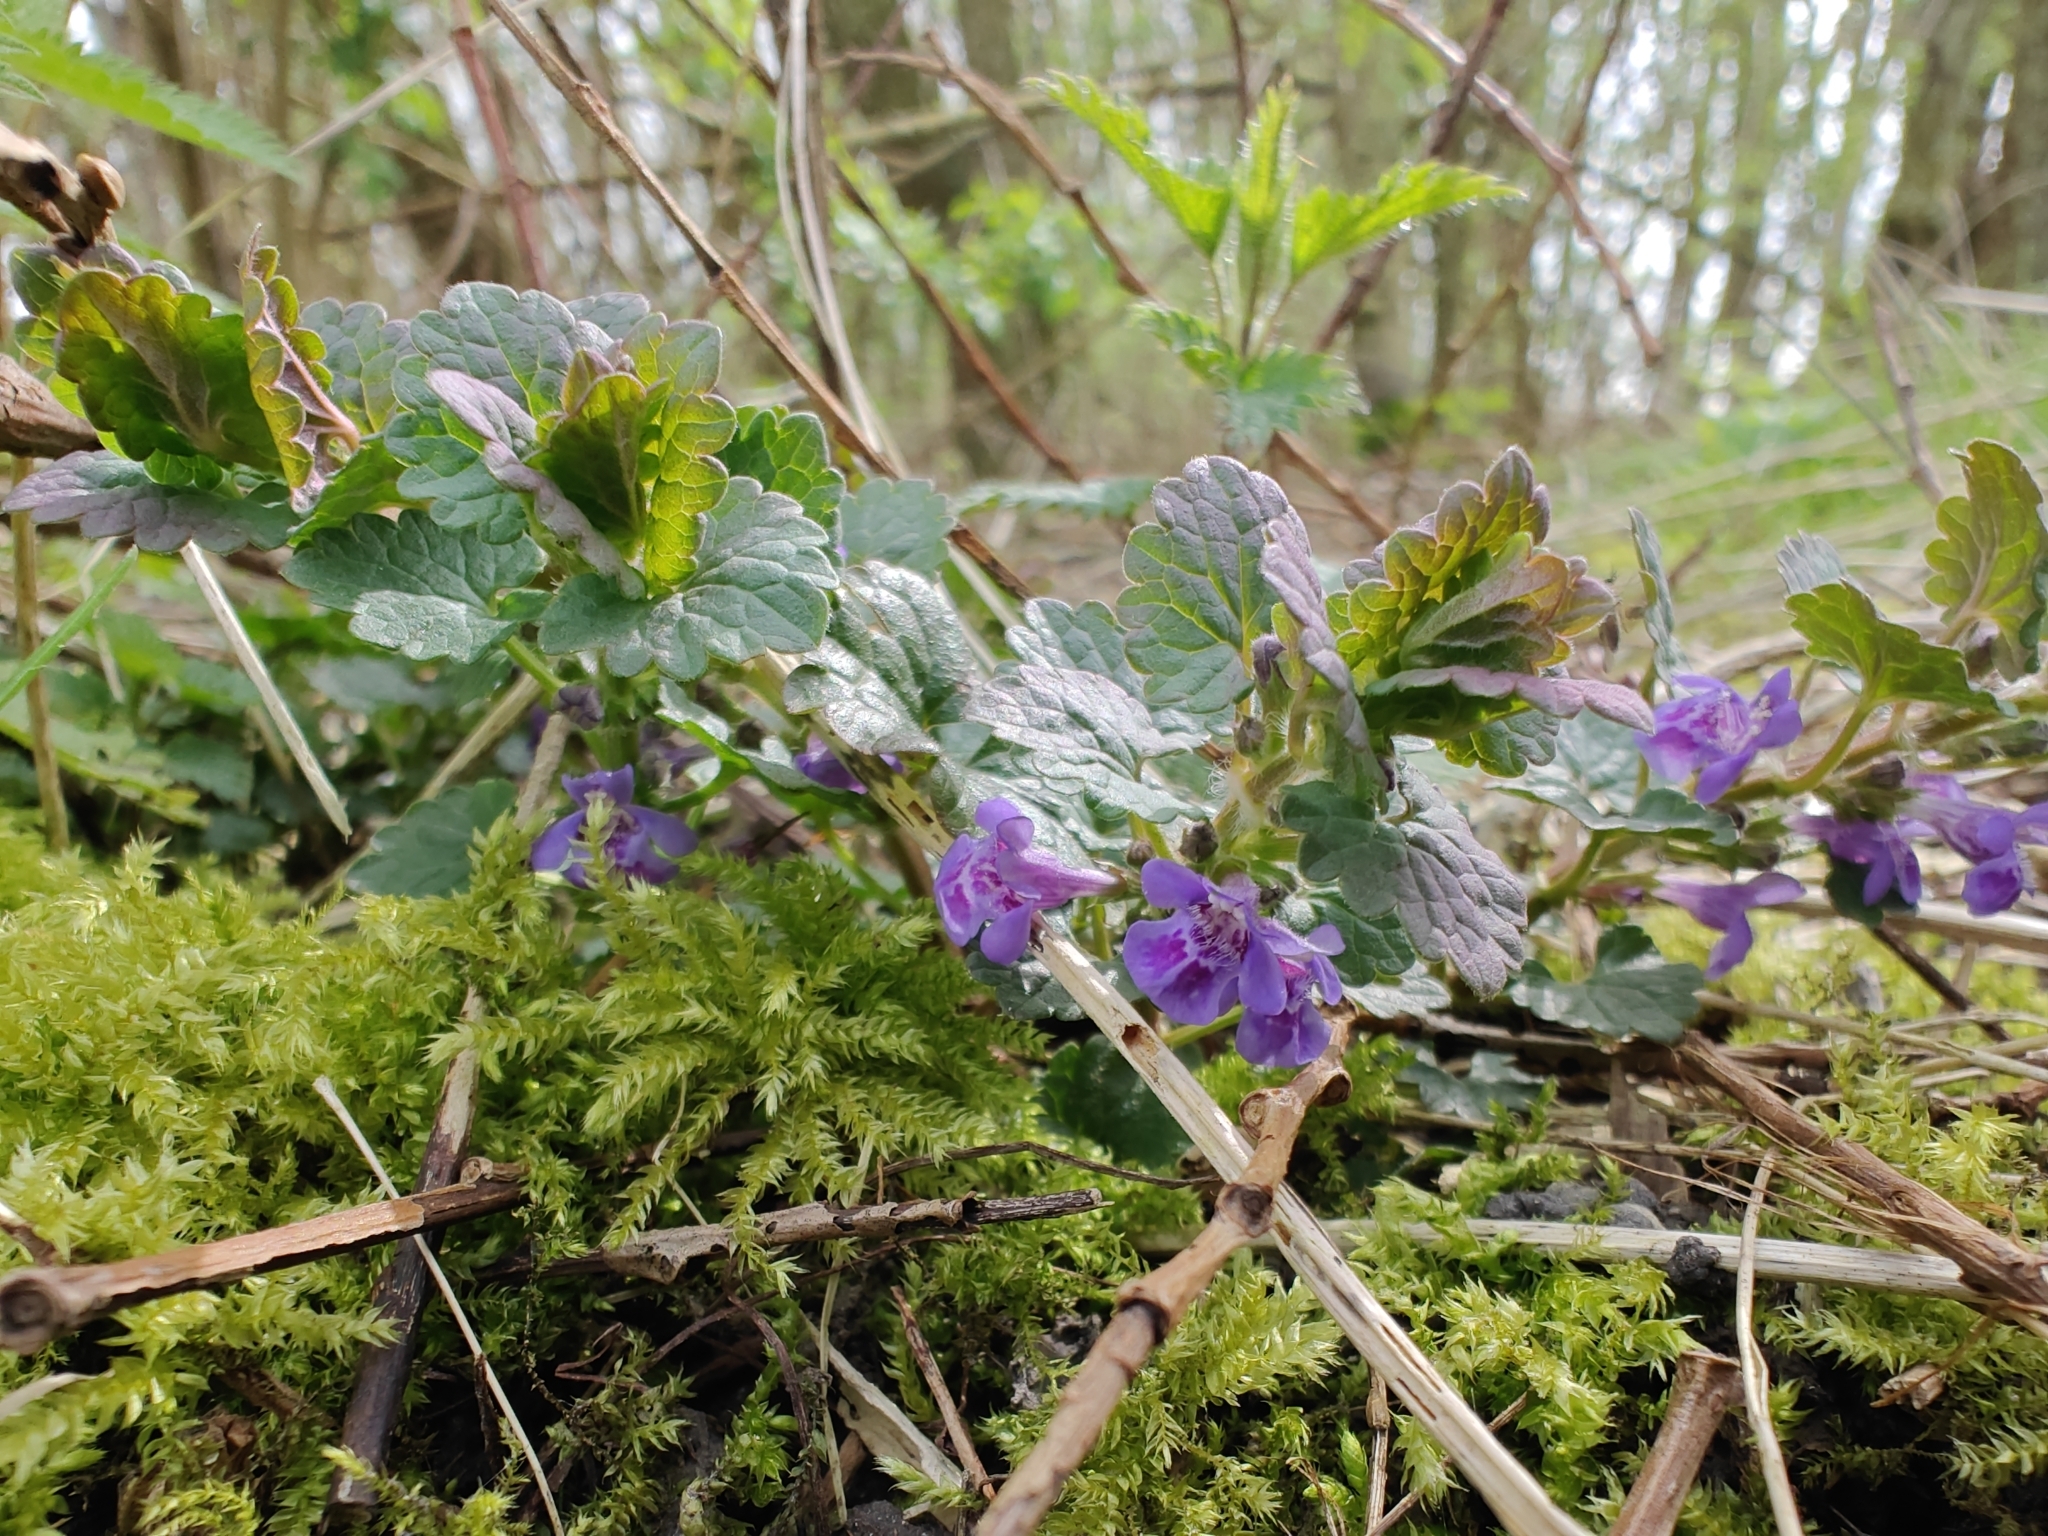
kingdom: Plantae
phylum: Tracheophyta
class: Magnoliopsida
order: Lamiales
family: Lamiaceae
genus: Glechoma
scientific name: Glechoma hederacea
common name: Ground ivy
